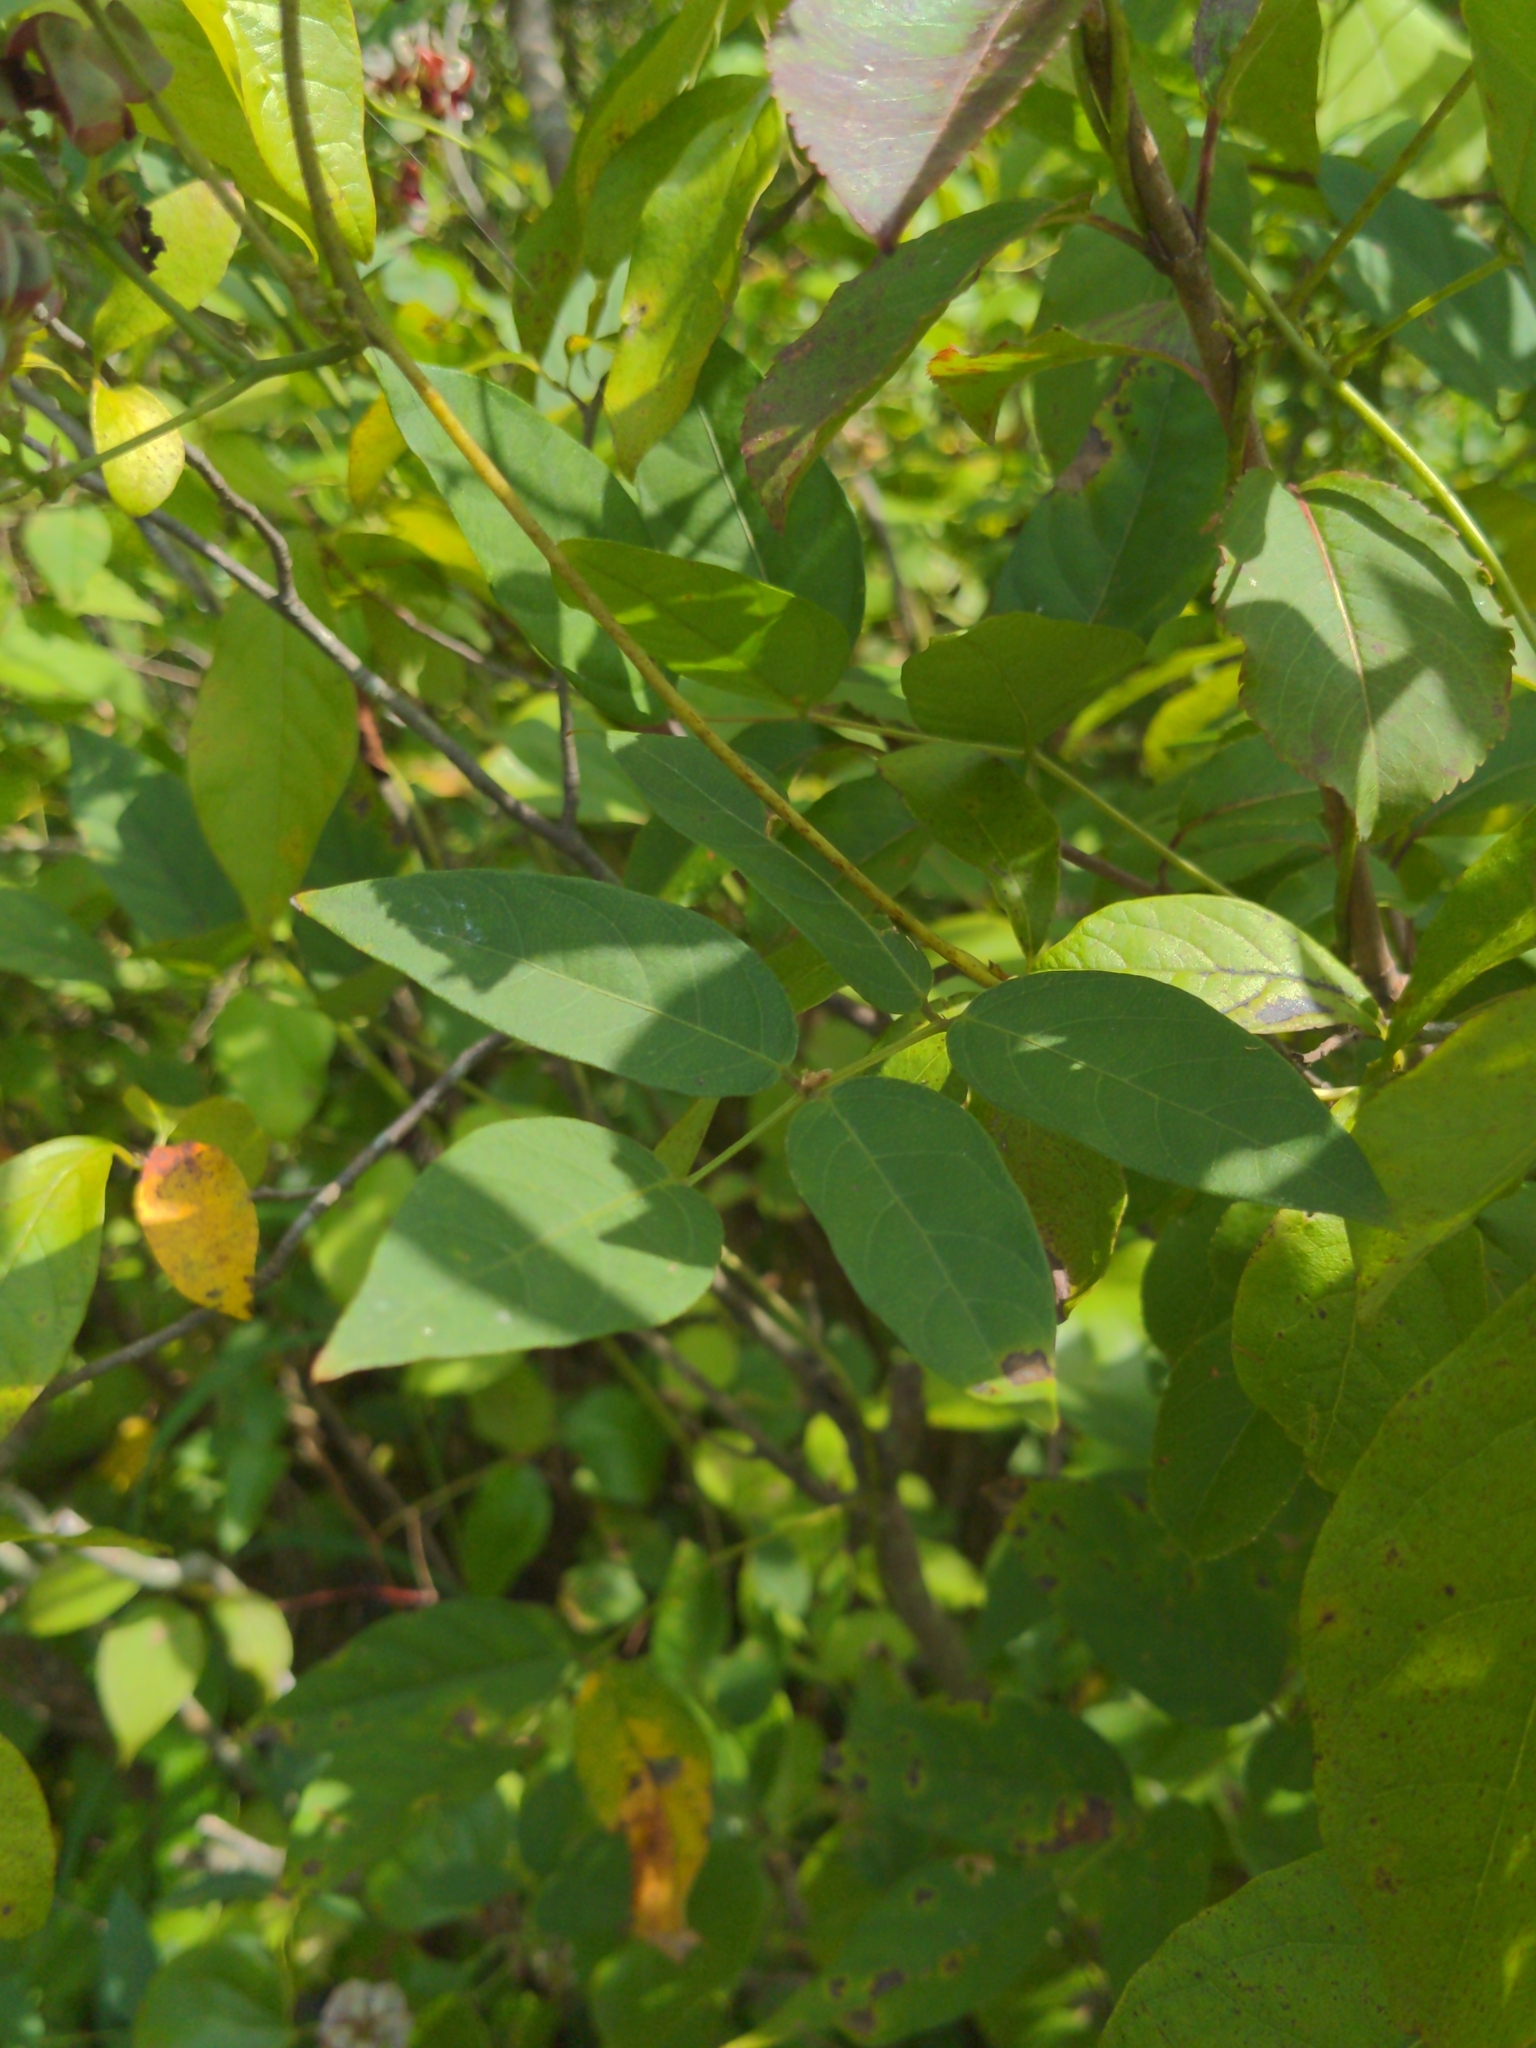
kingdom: Plantae
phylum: Tracheophyta
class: Magnoliopsida
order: Fabales
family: Fabaceae
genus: Apios
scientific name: Apios americana
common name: American potato-bean
